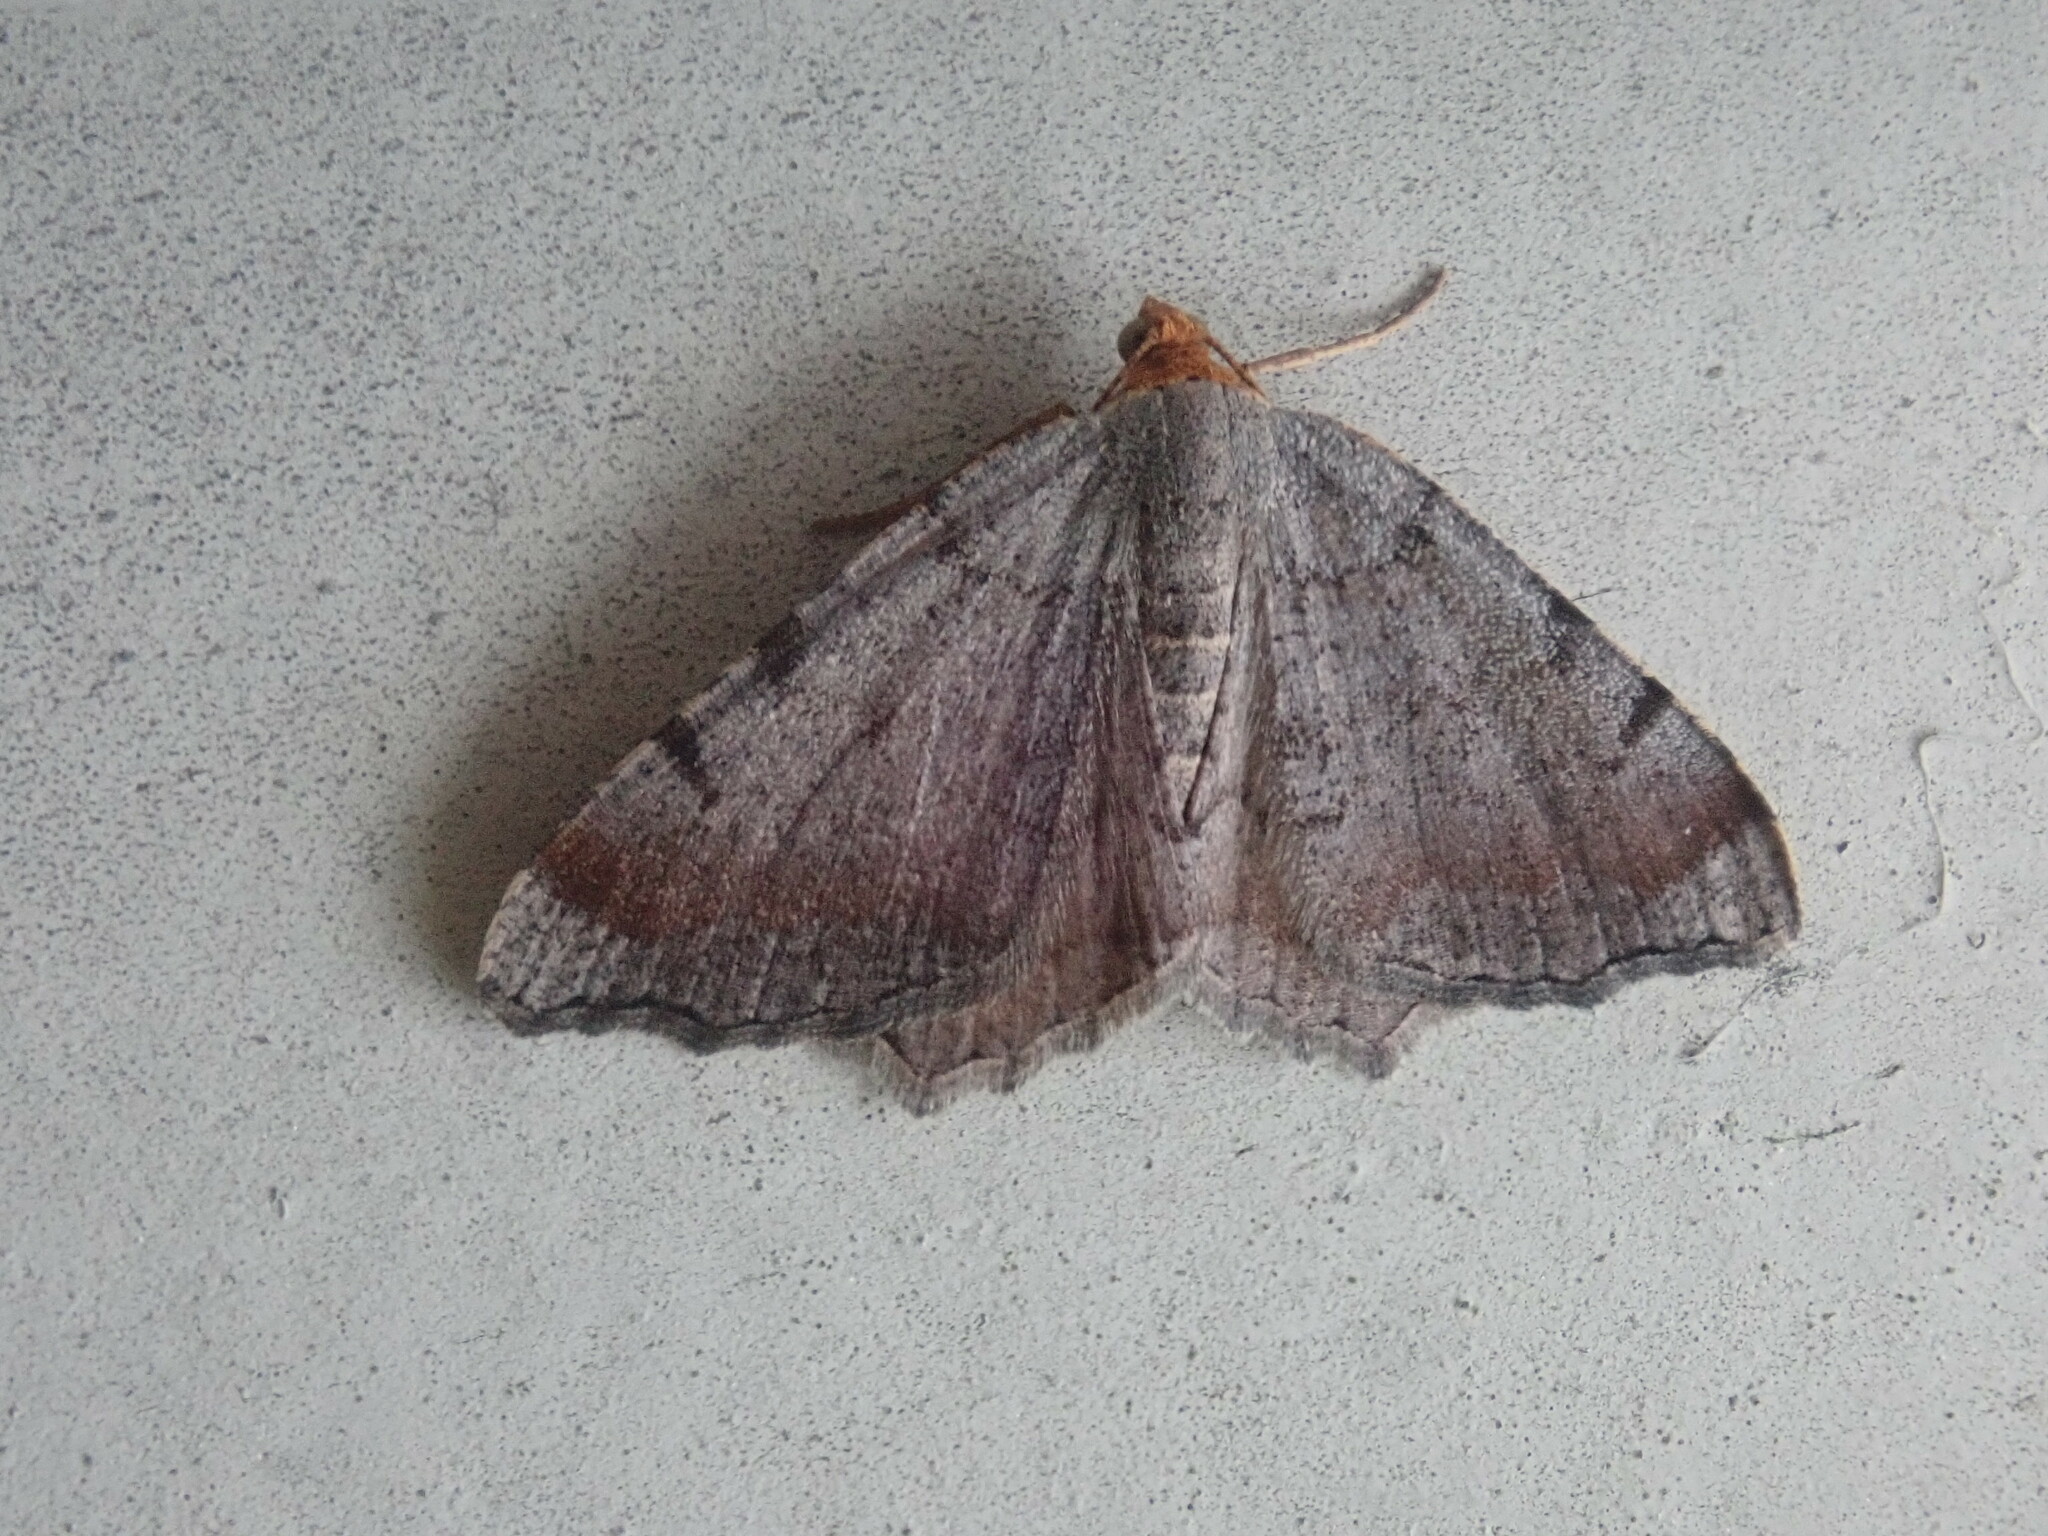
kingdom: Animalia
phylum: Arthropoda
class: Insecta
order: Lepidoptera
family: Geometridae
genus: Macaria
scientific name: Macaria minorata
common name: Minor angle moth
